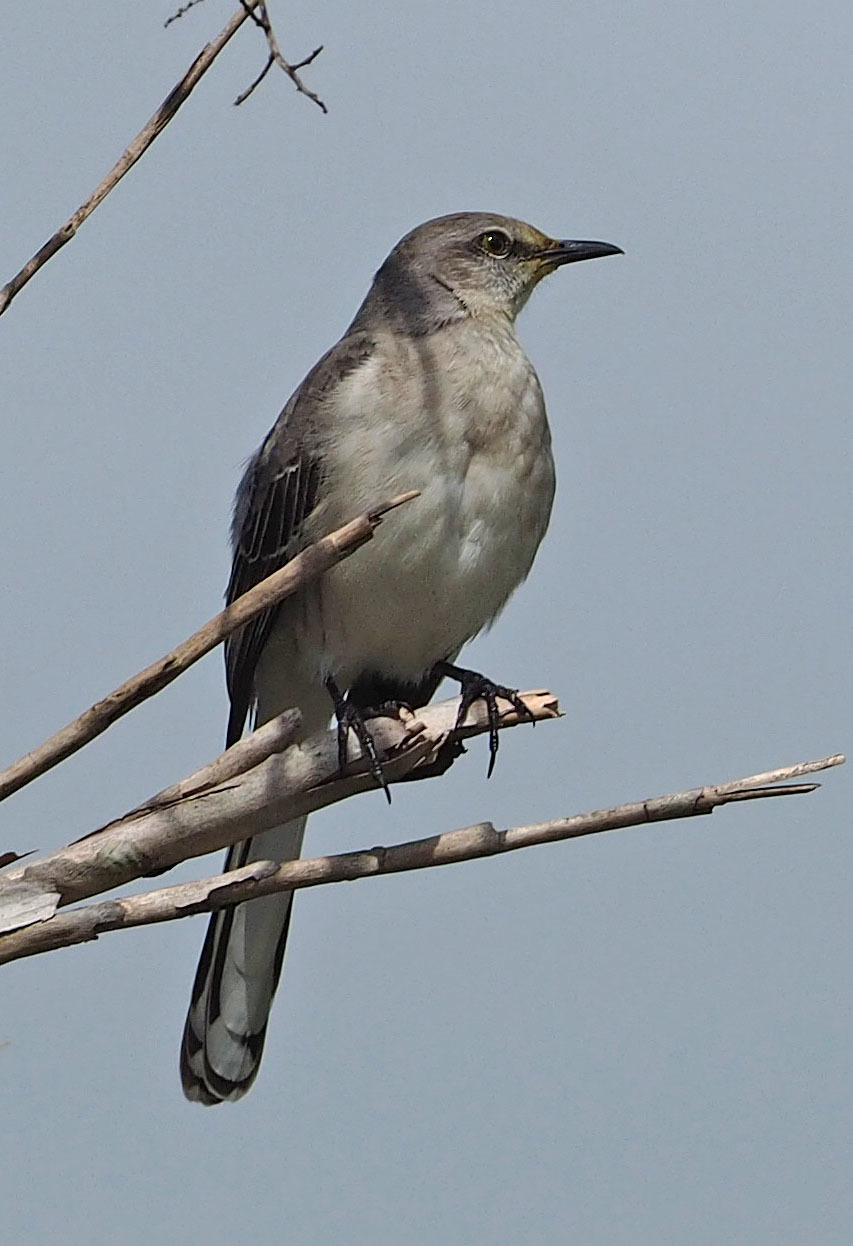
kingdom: Animalia
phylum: Chordata
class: Aves
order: Passeriformes
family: Mimidae
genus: Mimus
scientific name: Mimus polyglottos
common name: Northern mockingbird
